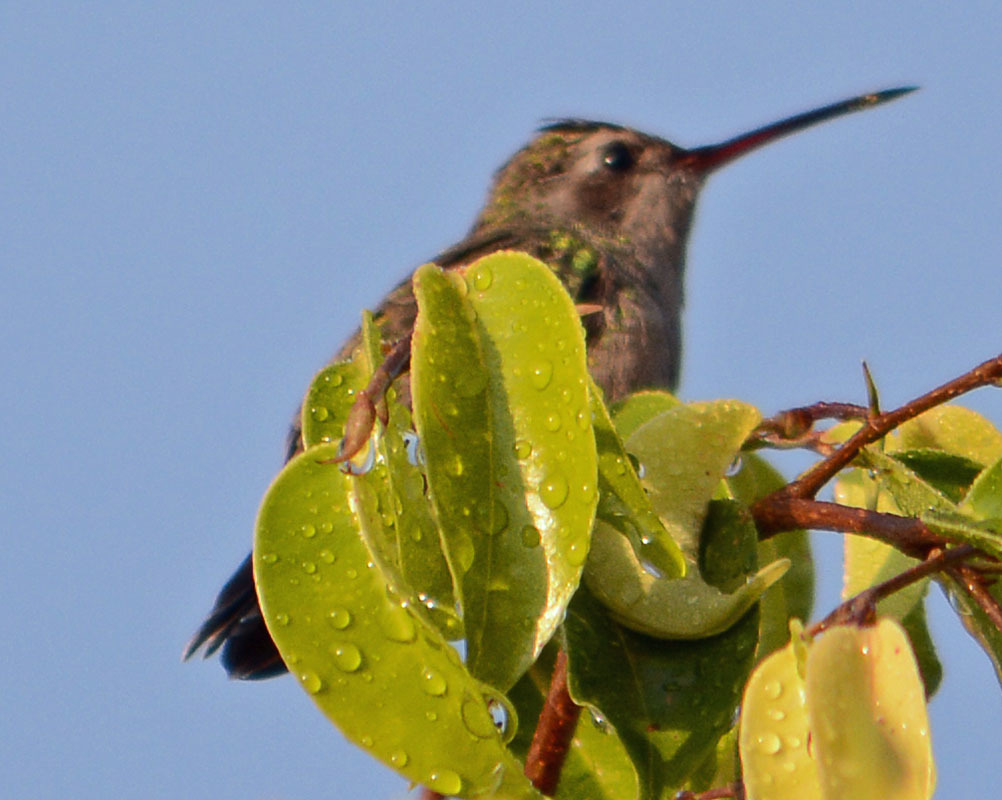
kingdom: Animalia
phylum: Chordata
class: Aves
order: Apodiformes
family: Trochilidae
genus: Cynanthus
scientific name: Cynanthus latirostris
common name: Broad-billed hummingbird
